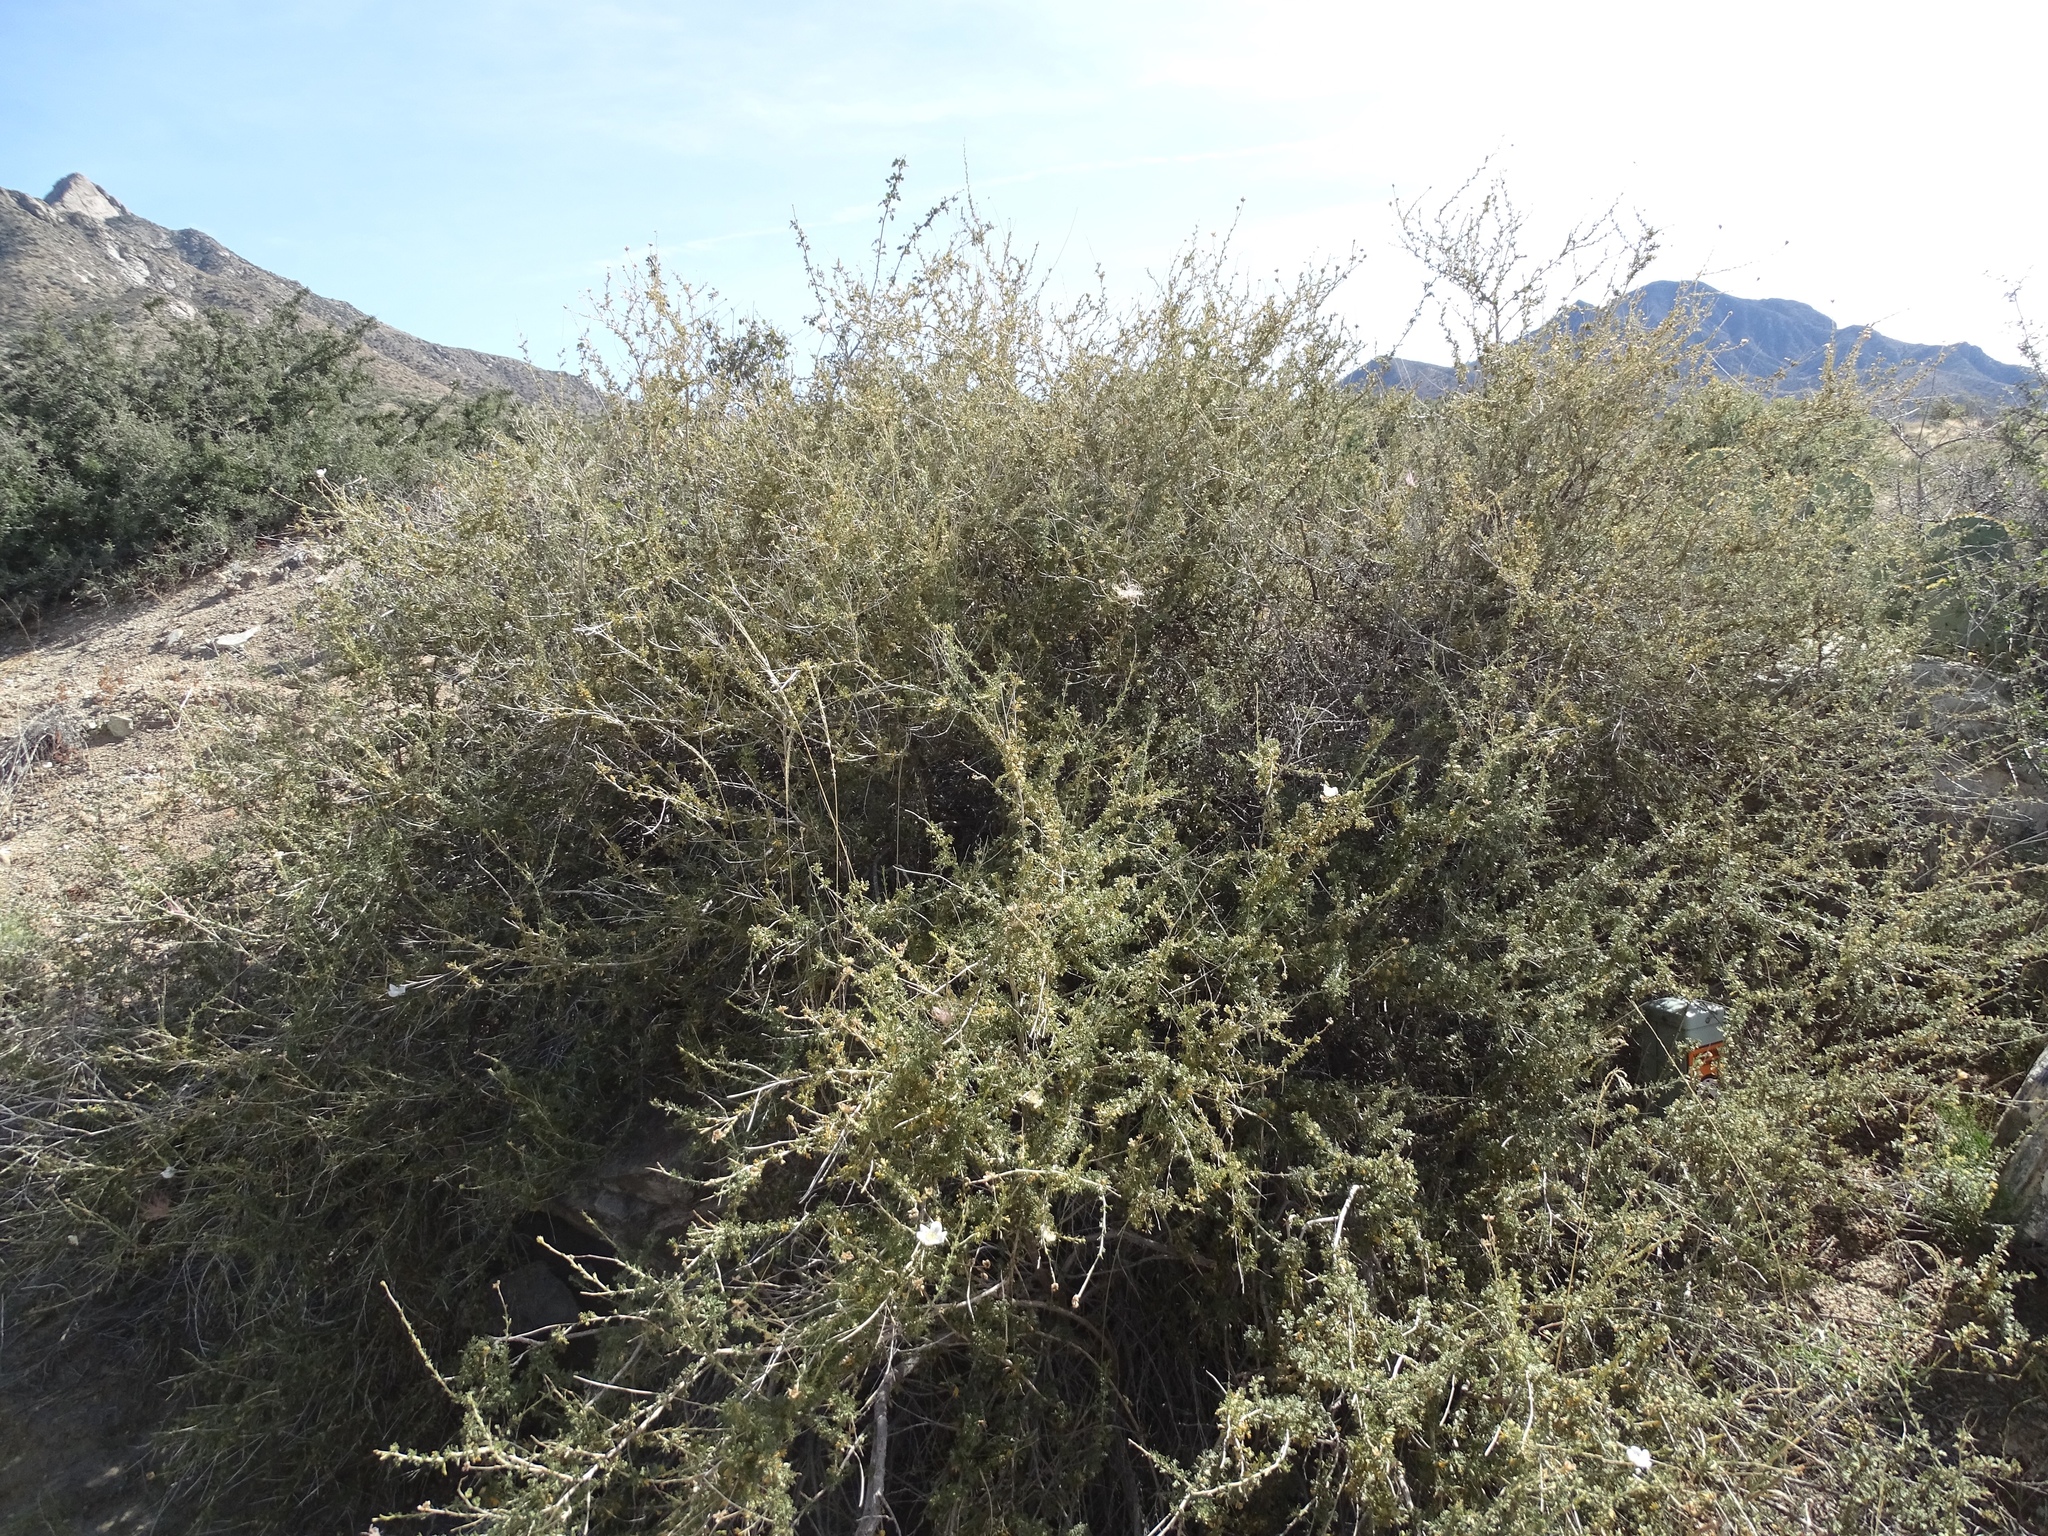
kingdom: Plantae
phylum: Tracheophyta
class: Magnoliopsida
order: Rosales
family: Rosaceae
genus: Fallugia
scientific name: Fallugia paradoxa
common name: Apache-plume
